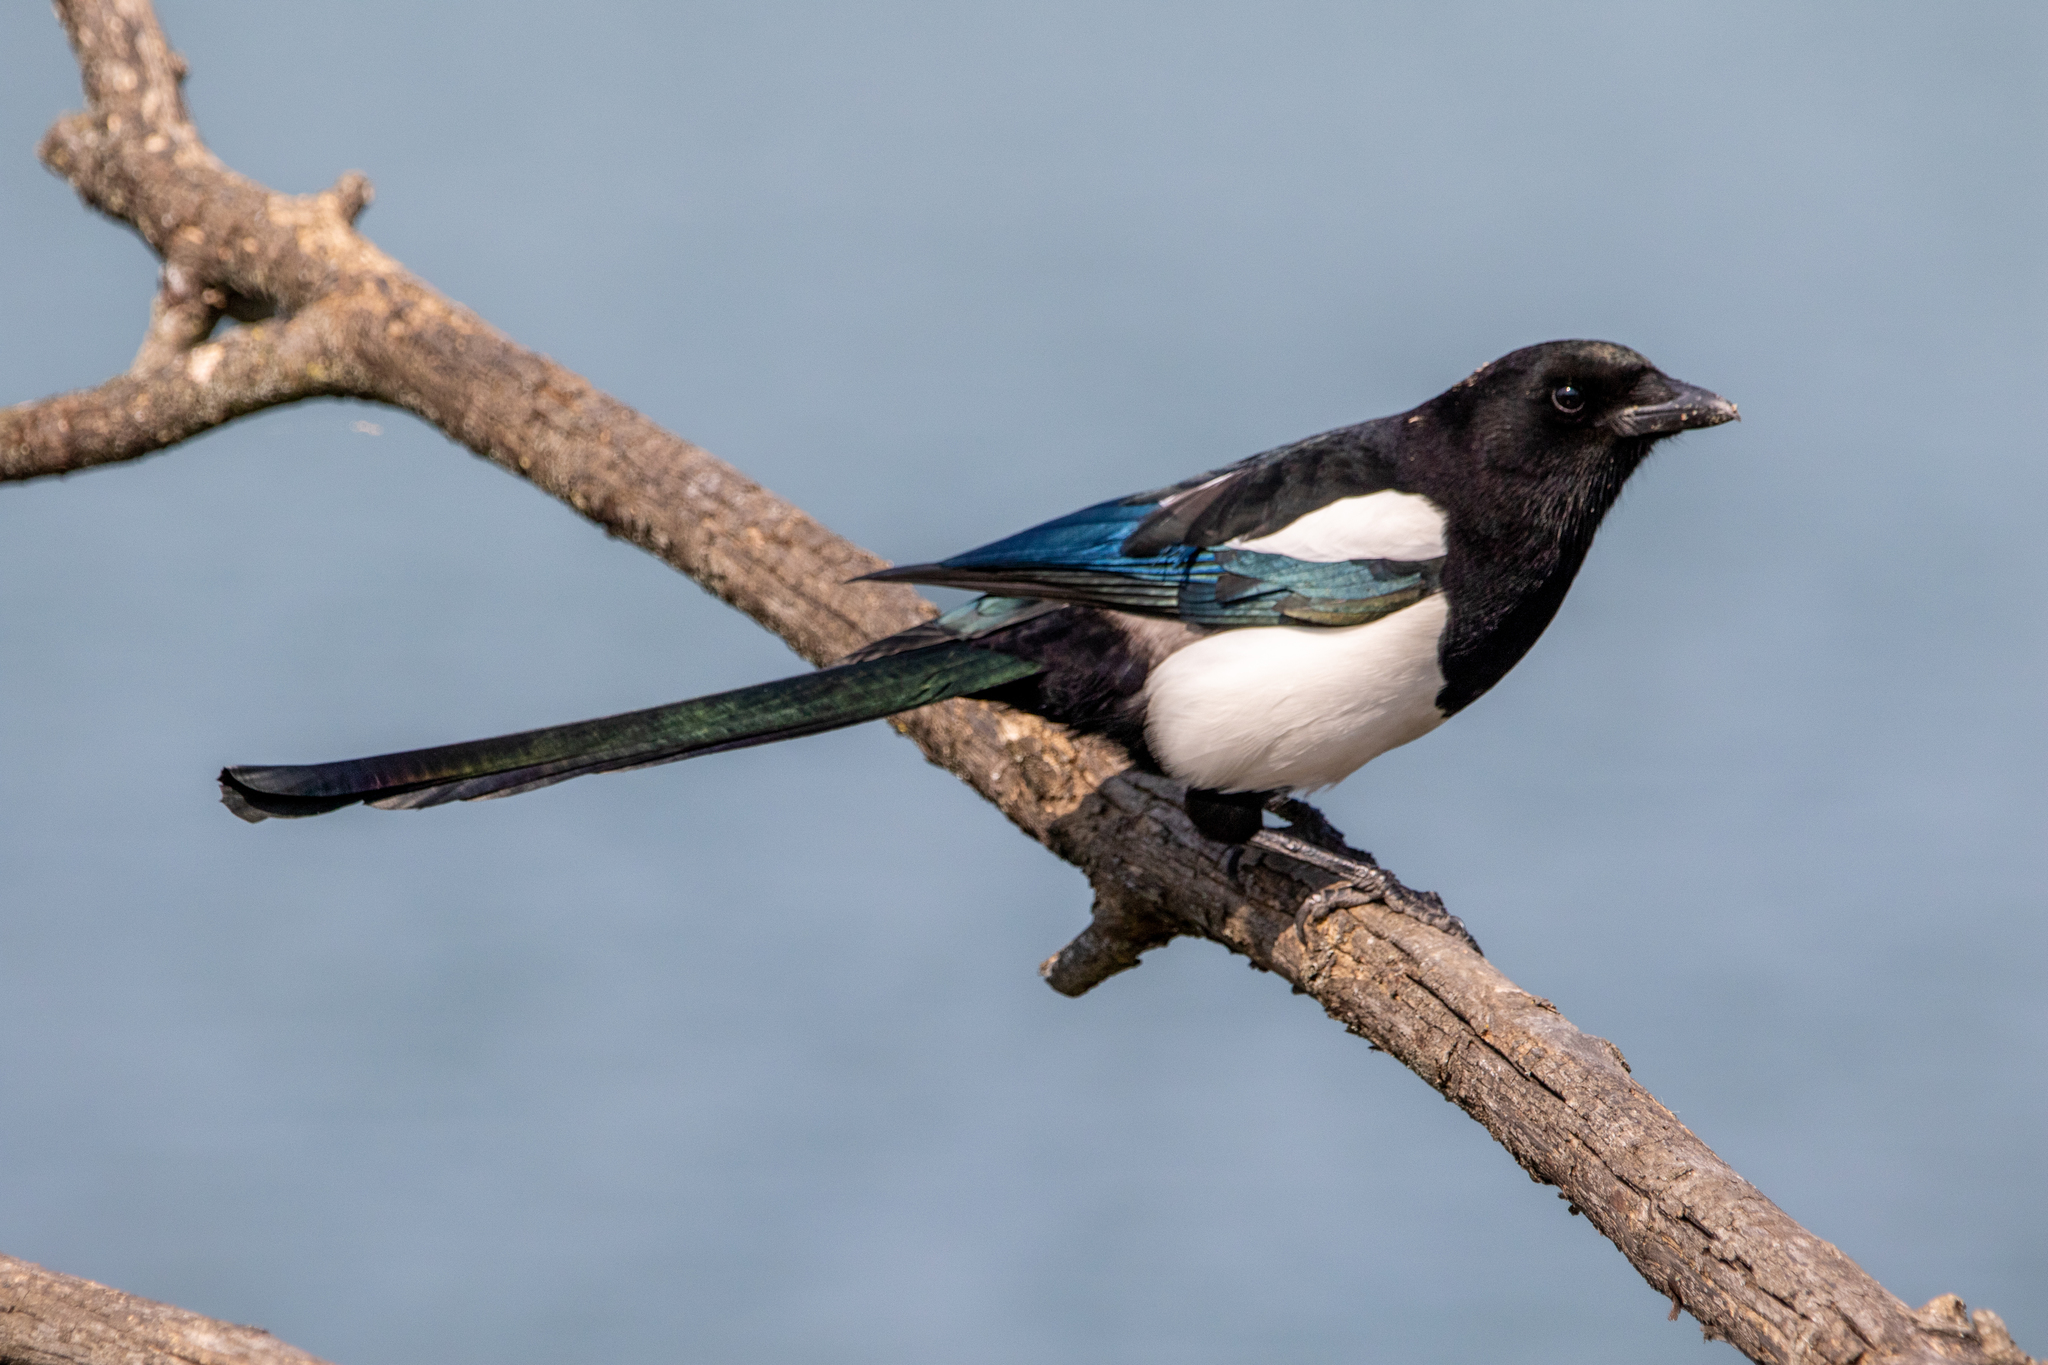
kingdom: Animalia
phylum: Chordata
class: Aves
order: Passeriformes
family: Corvidae
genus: Pica
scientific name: Pica pica
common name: Eurasian magpie
